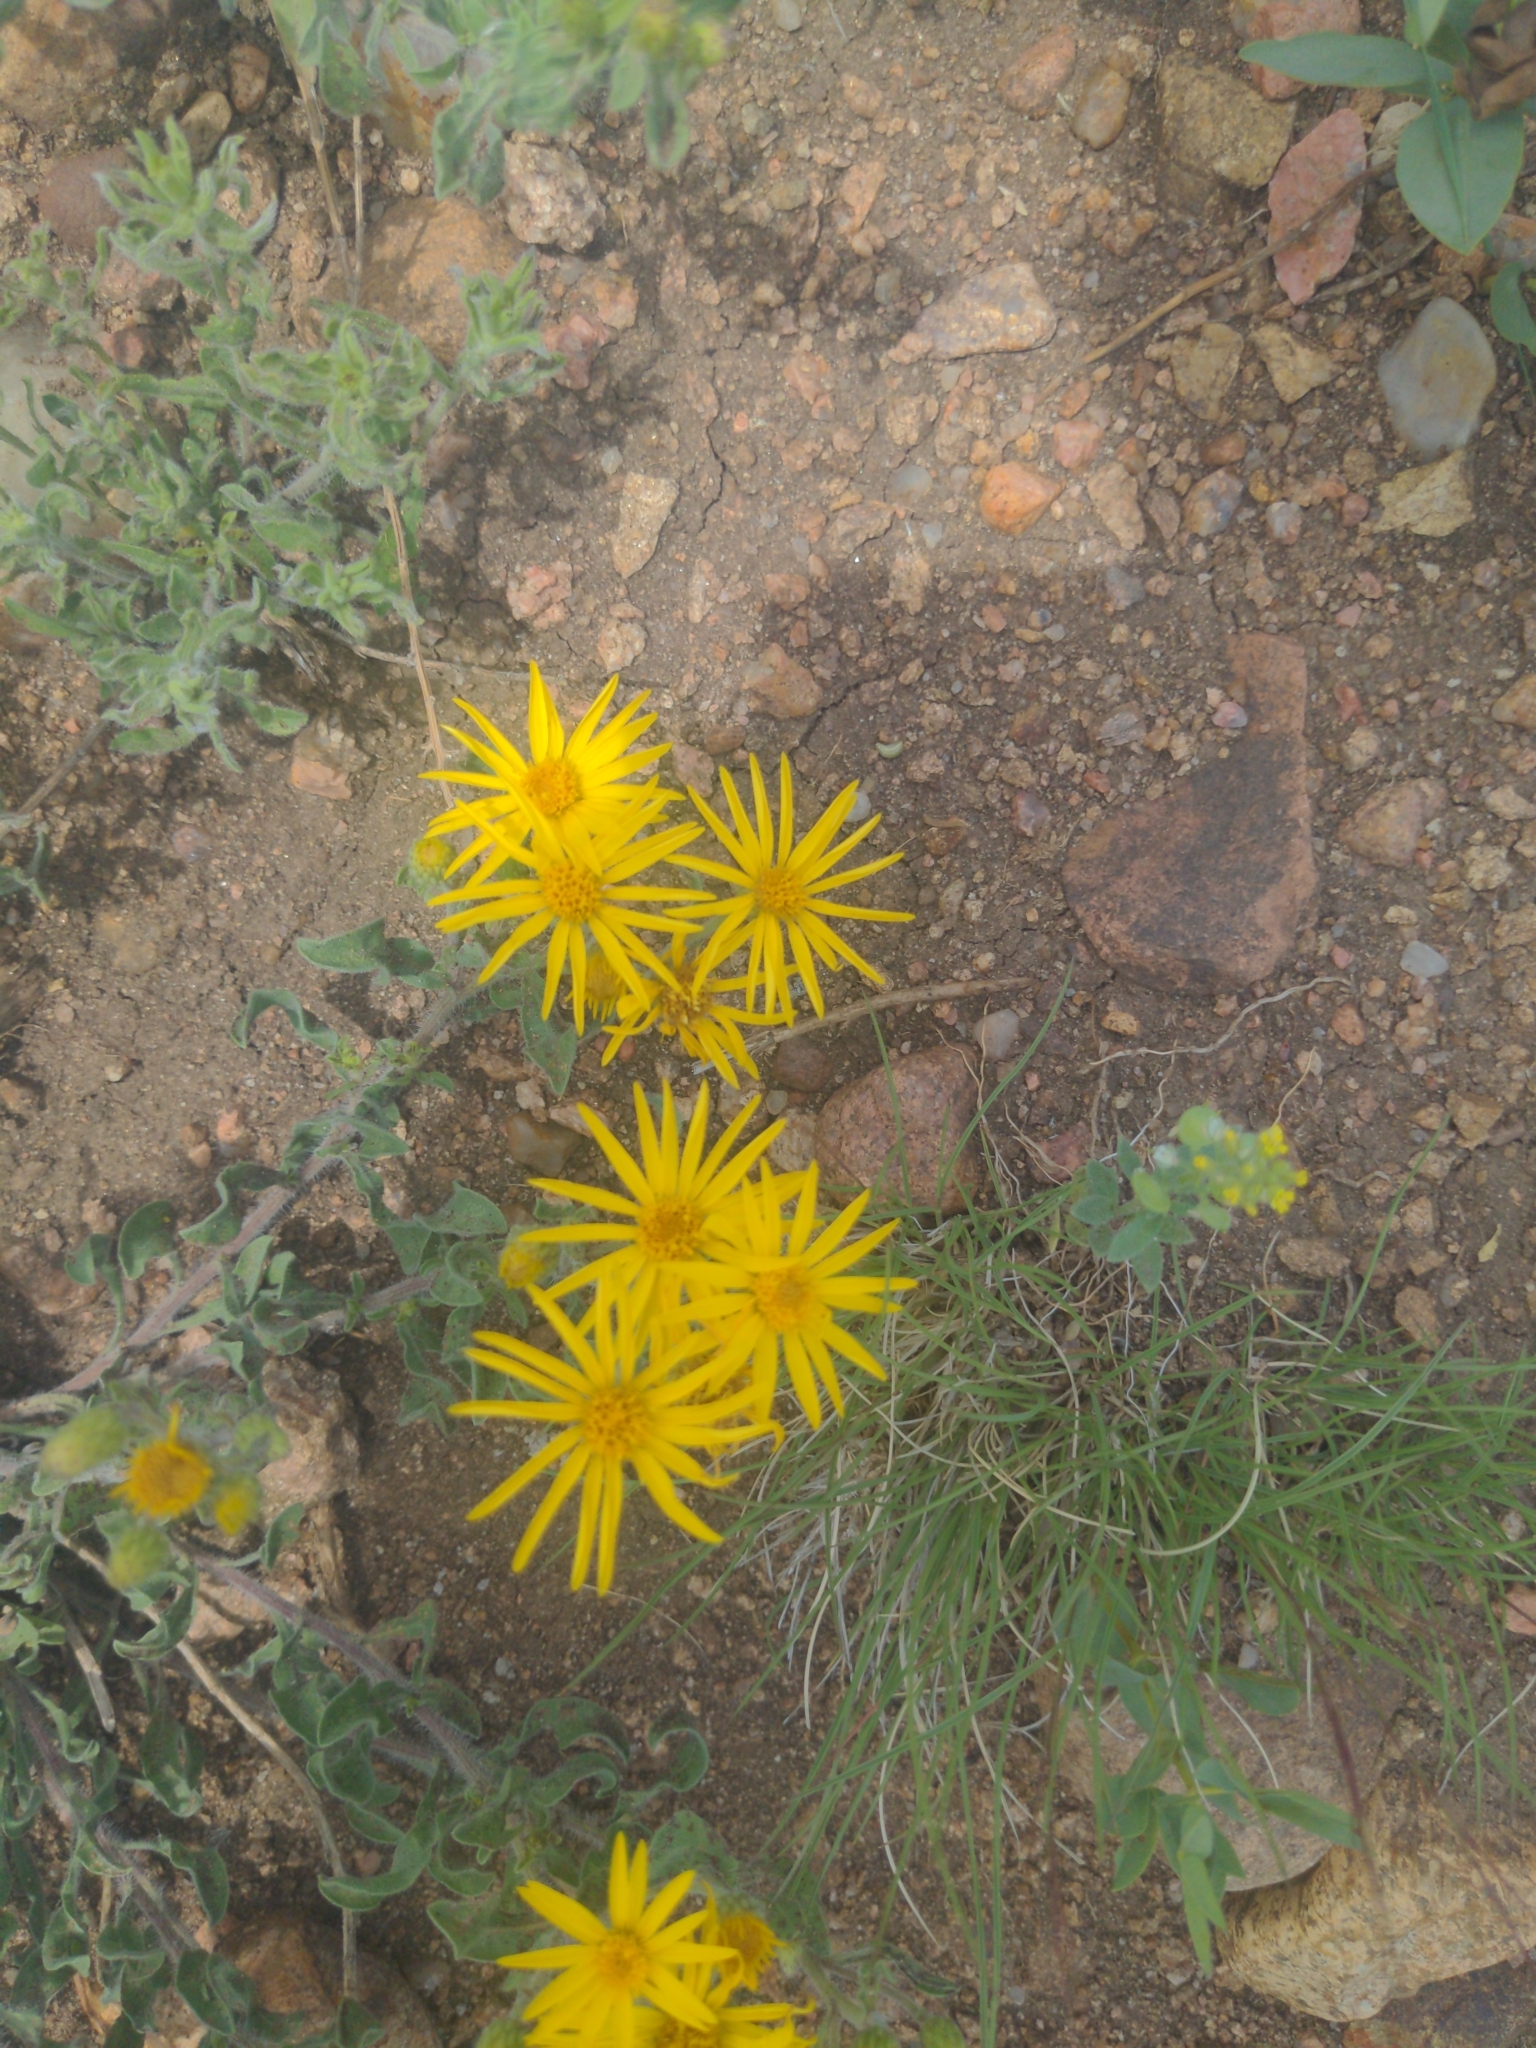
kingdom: Plantae
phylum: Tracheophyta
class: Magnoliopsida
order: Asterales
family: Asteraceae
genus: Heterotheca
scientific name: Heterotheca villosa
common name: Hairy false goldenaster
